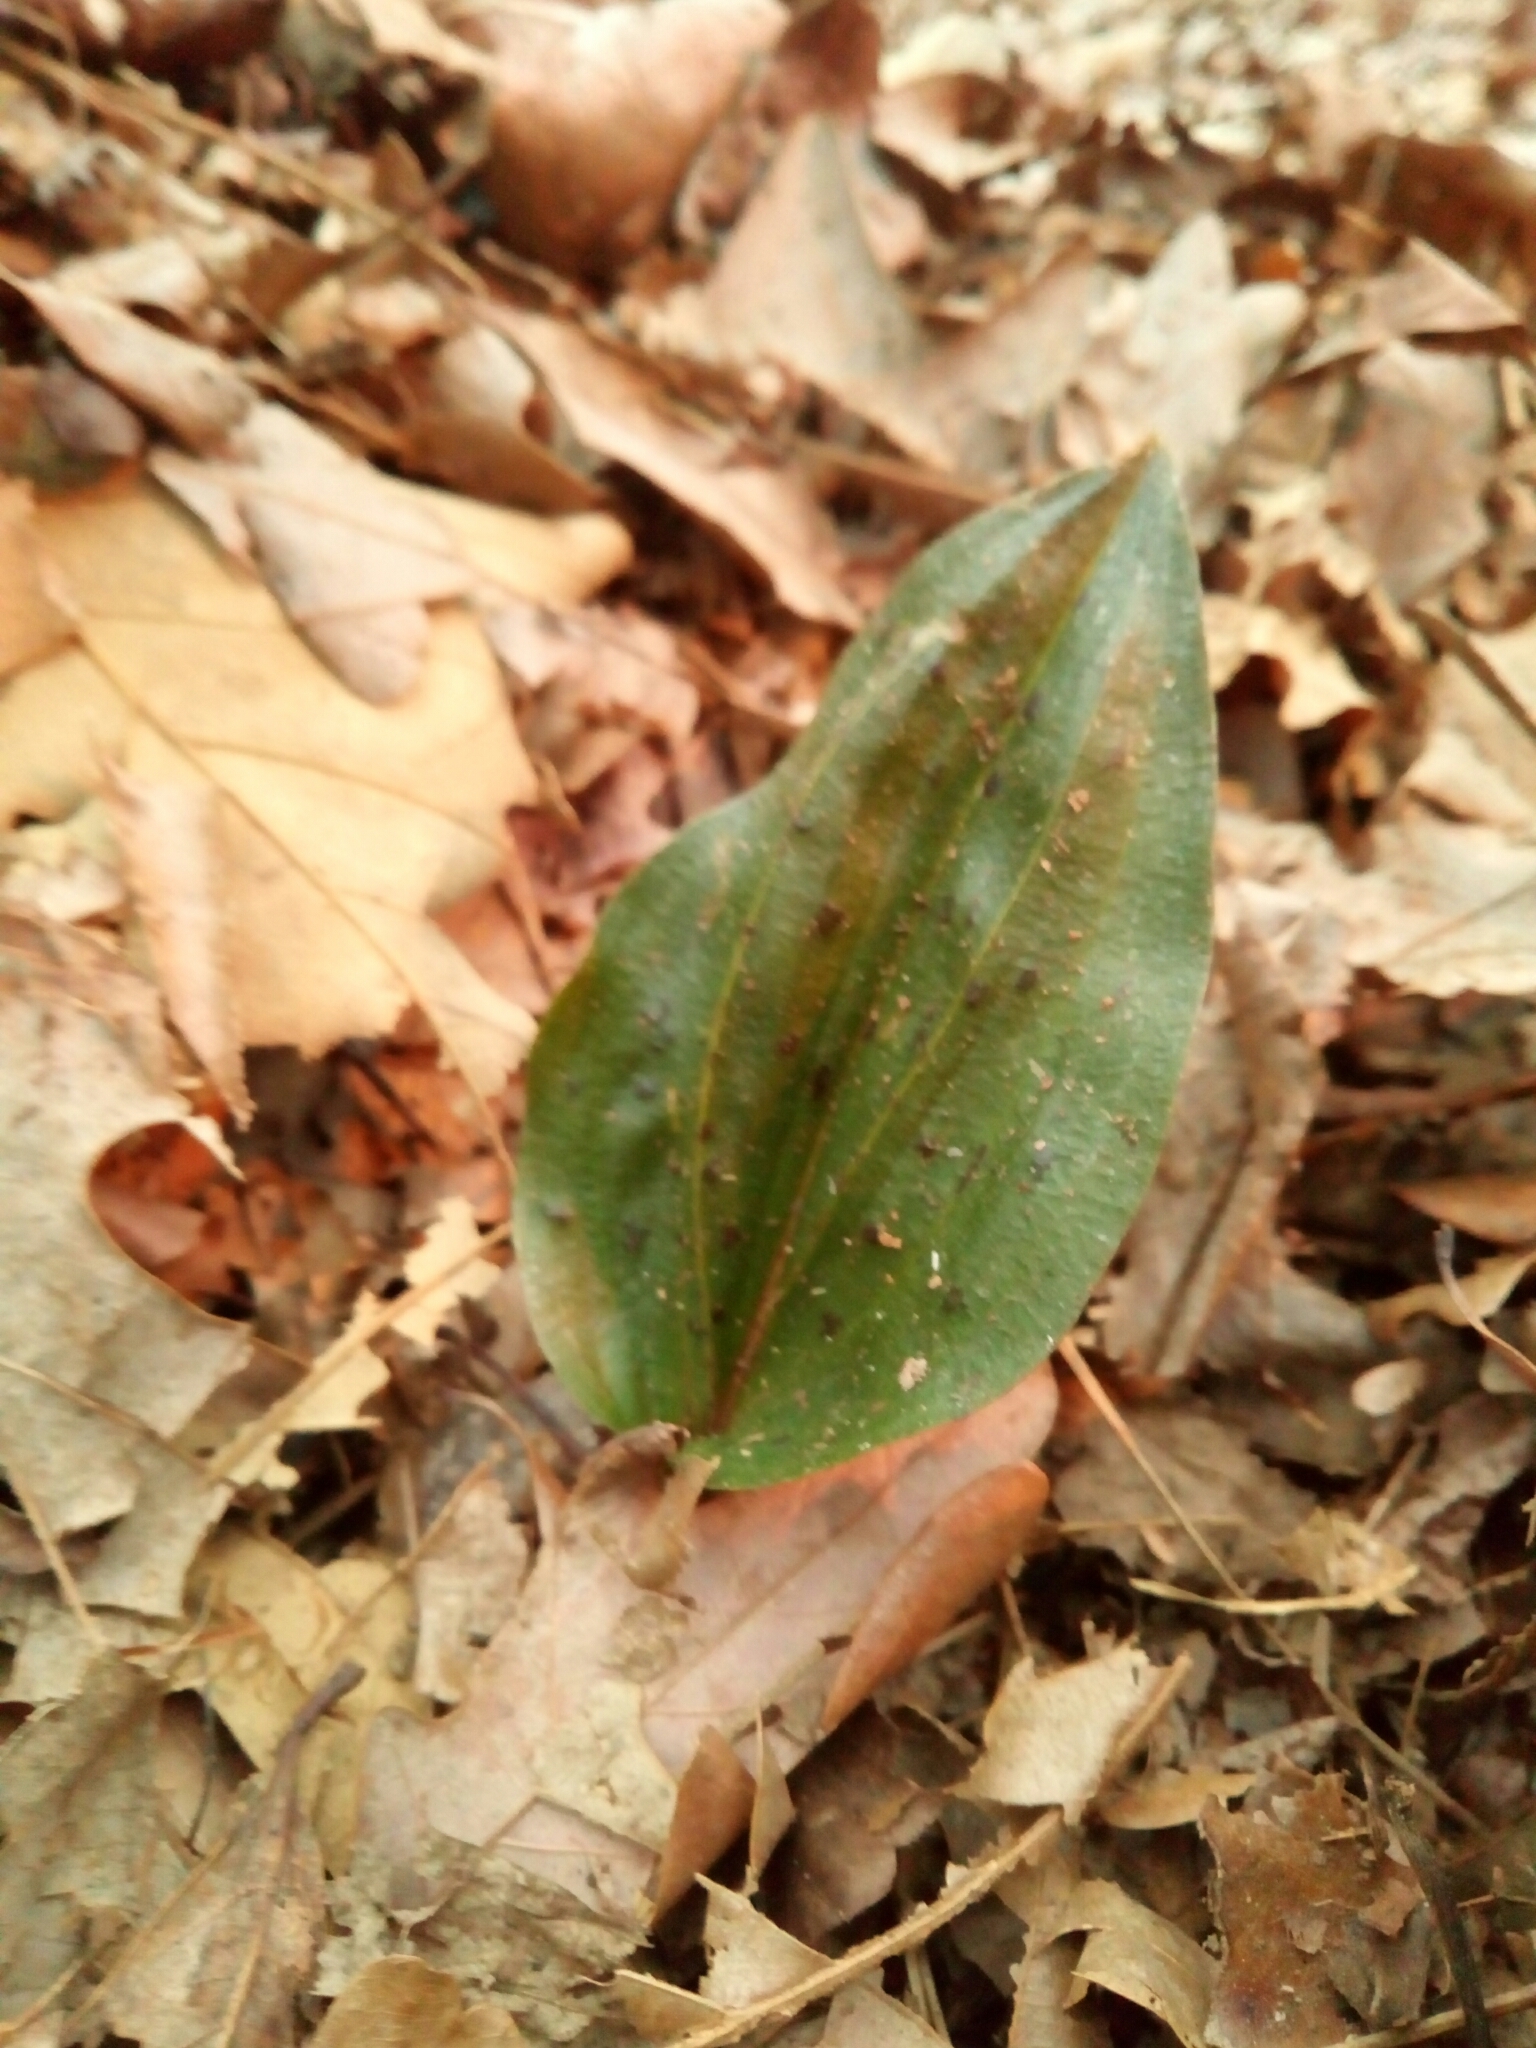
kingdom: Plantae
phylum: Tracheophyta
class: Liliopsida
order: Asparagales
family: Orchidaceae
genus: Tipularia
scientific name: Tipularia discolor
